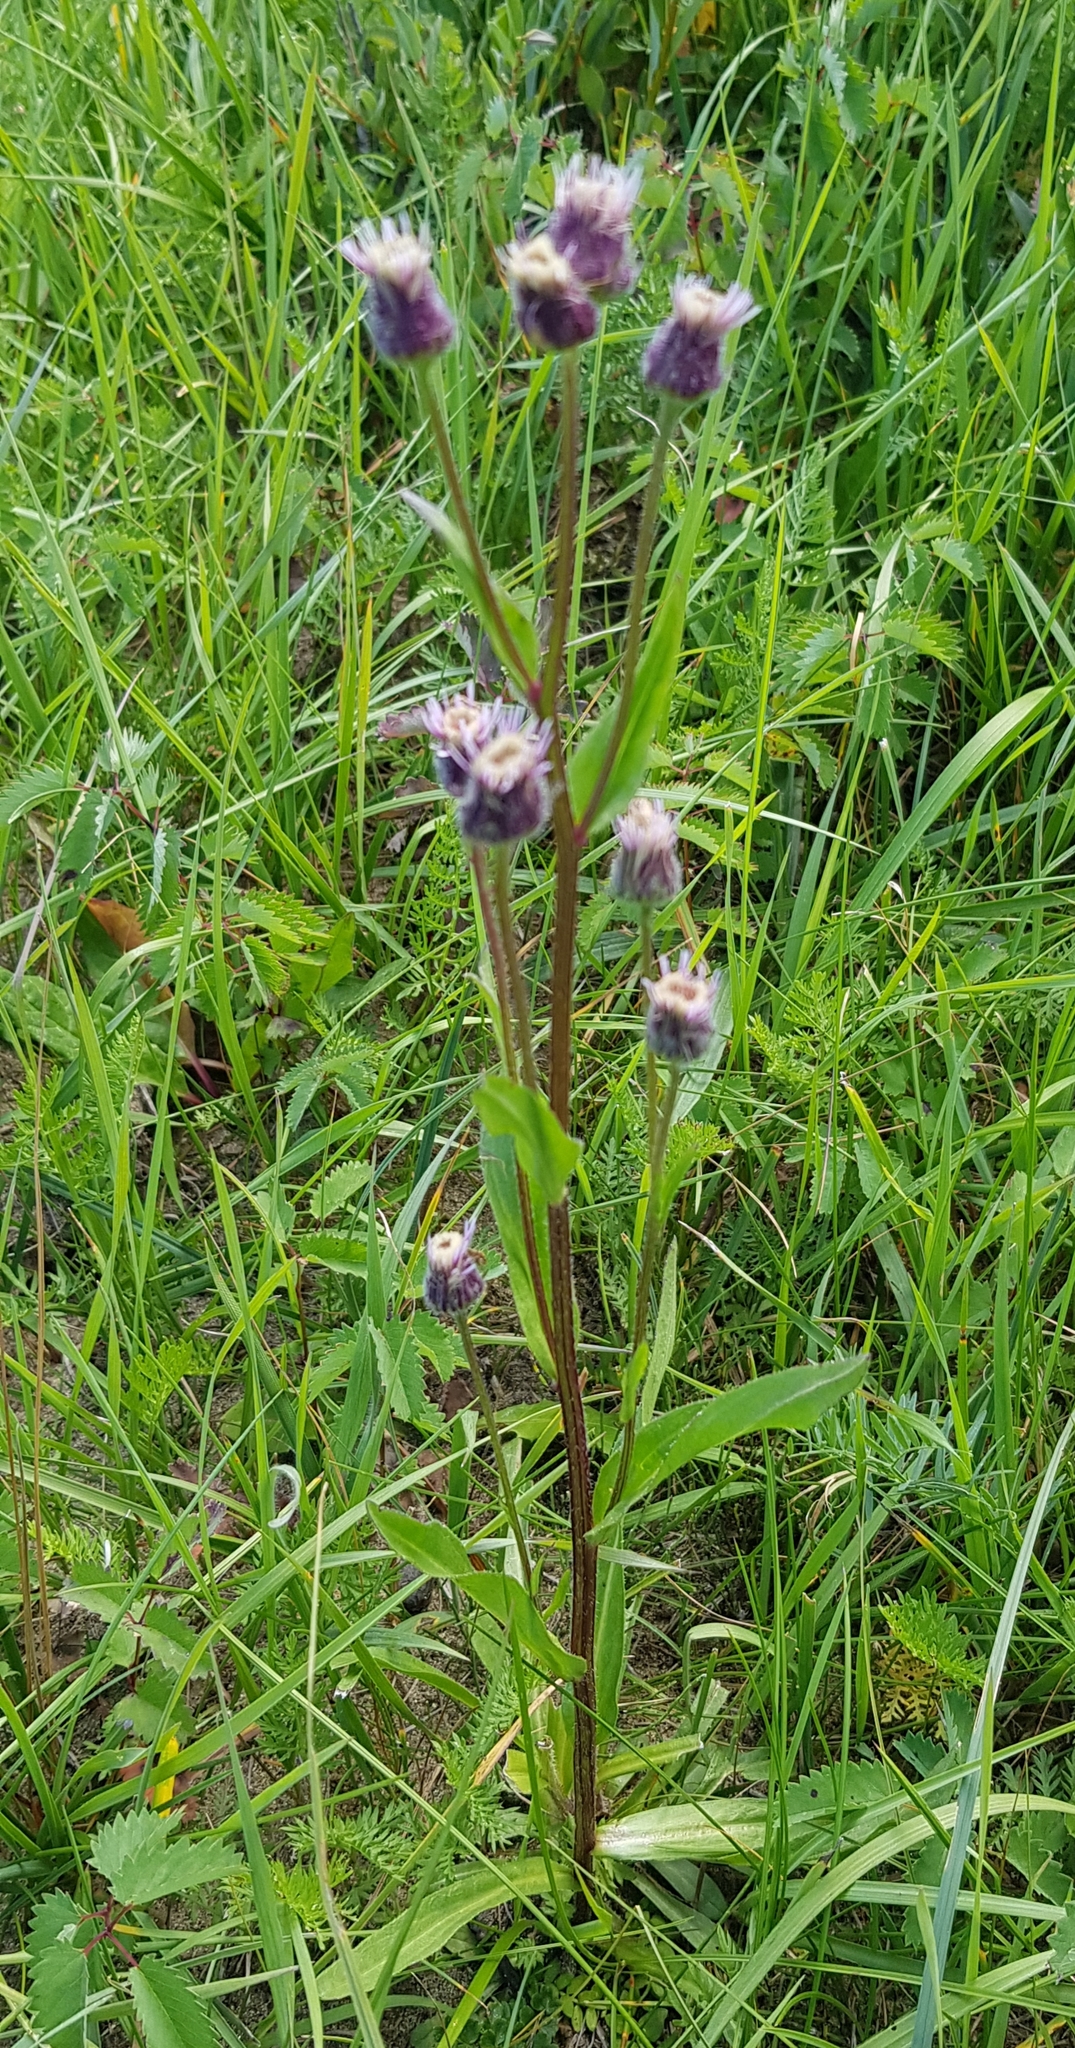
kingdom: Plantae
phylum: Tracheophyta
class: Magnoliopsida
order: Asterales
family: Asteraceae
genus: Erigeron
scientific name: Erigeron acris
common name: Blue fleabane
